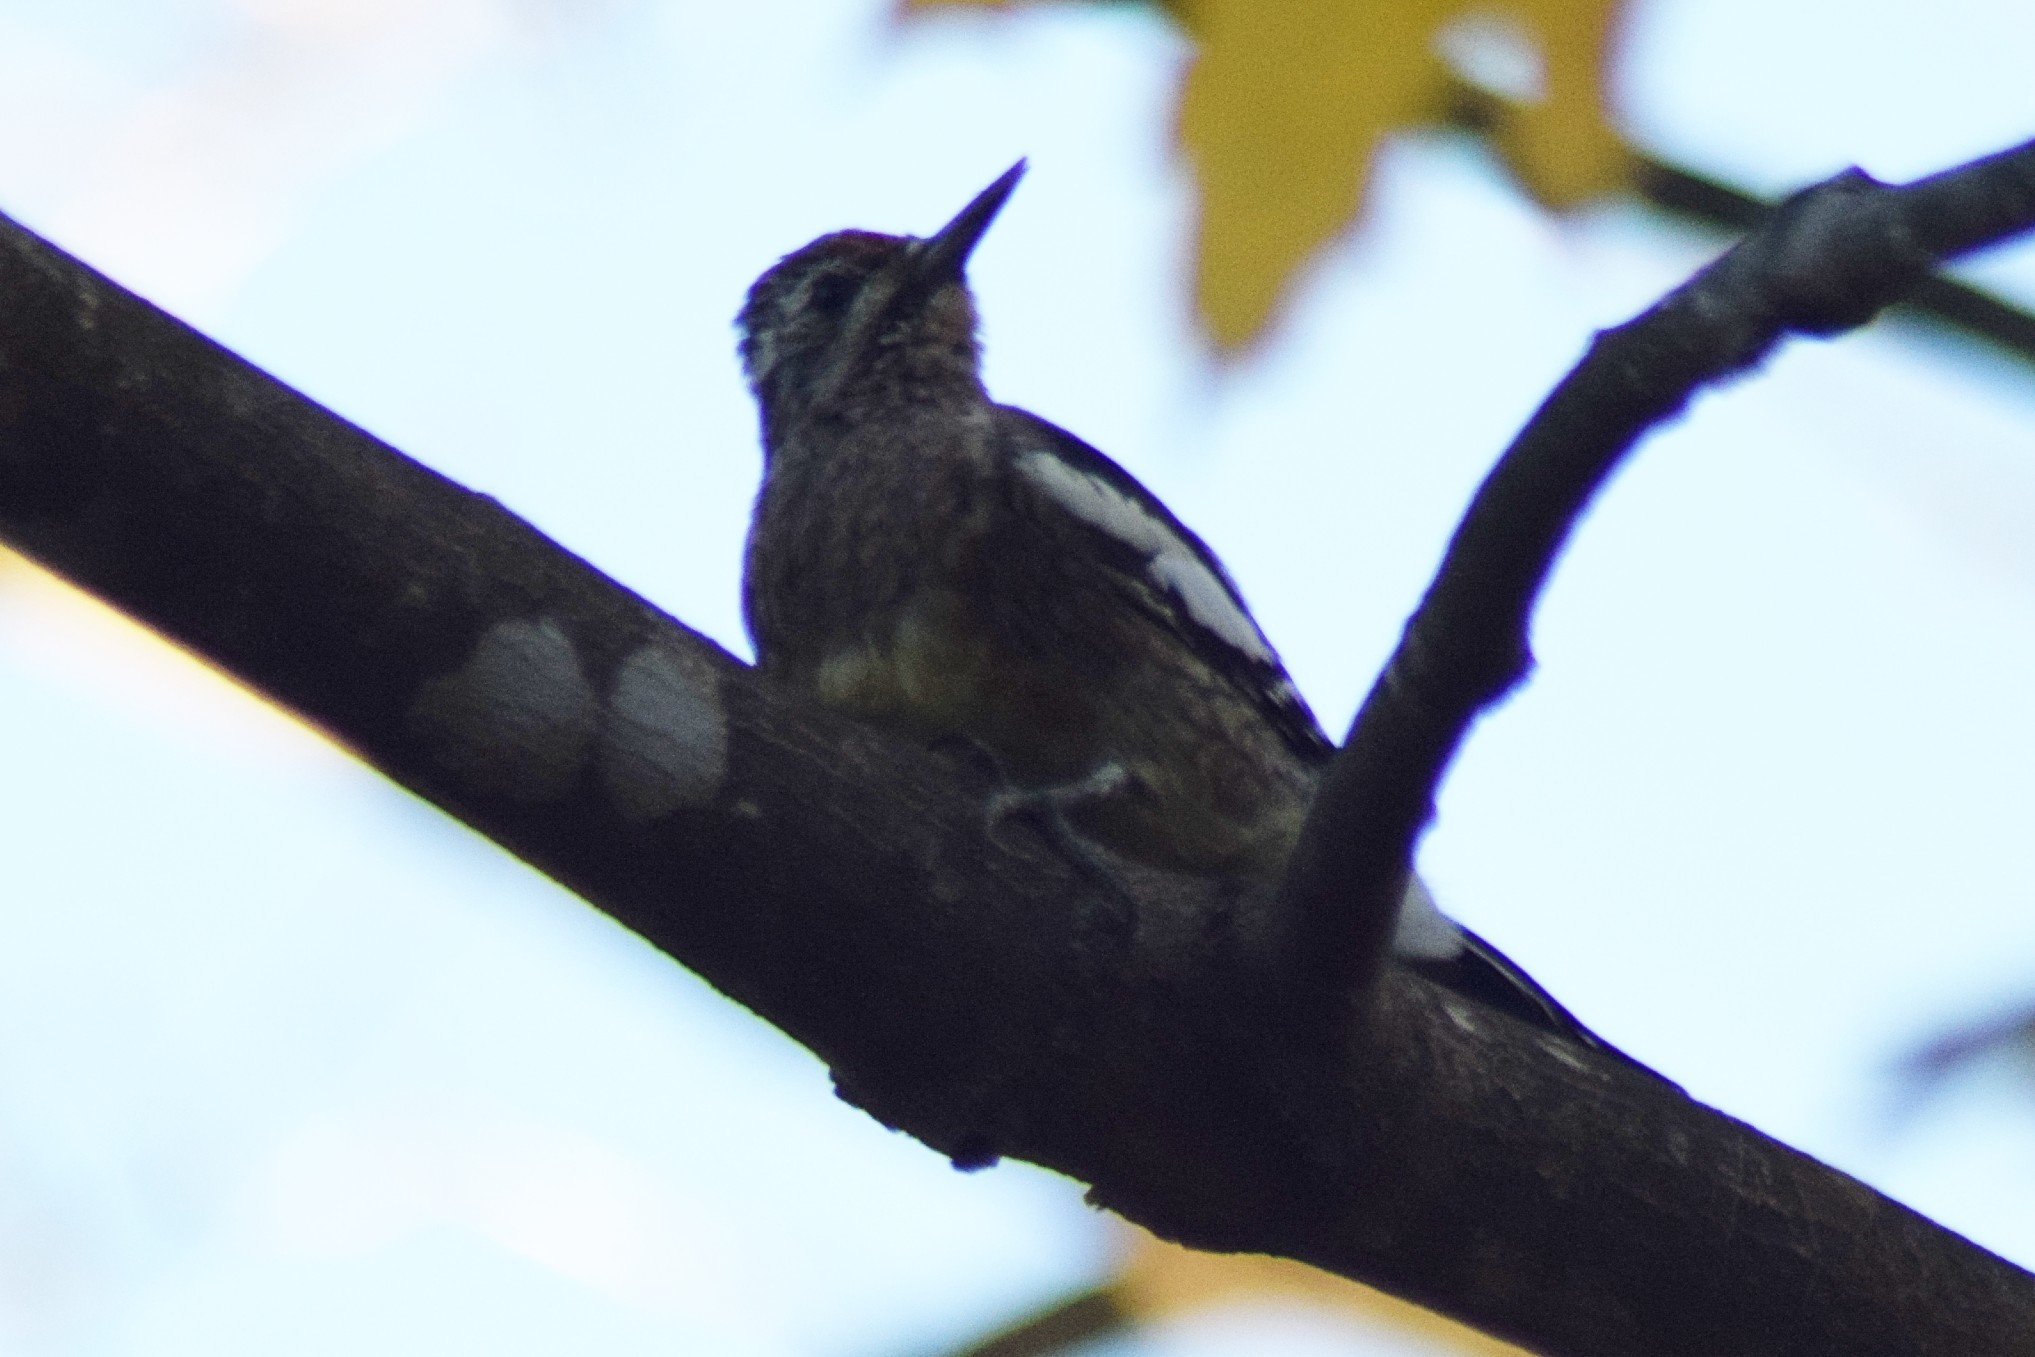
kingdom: Animalia
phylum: Chordata
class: Aves
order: Piciformes
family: Picidae
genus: Sphyrapicus
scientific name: Sphyrapicus varius
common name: Yellow-bellied sapsucker
